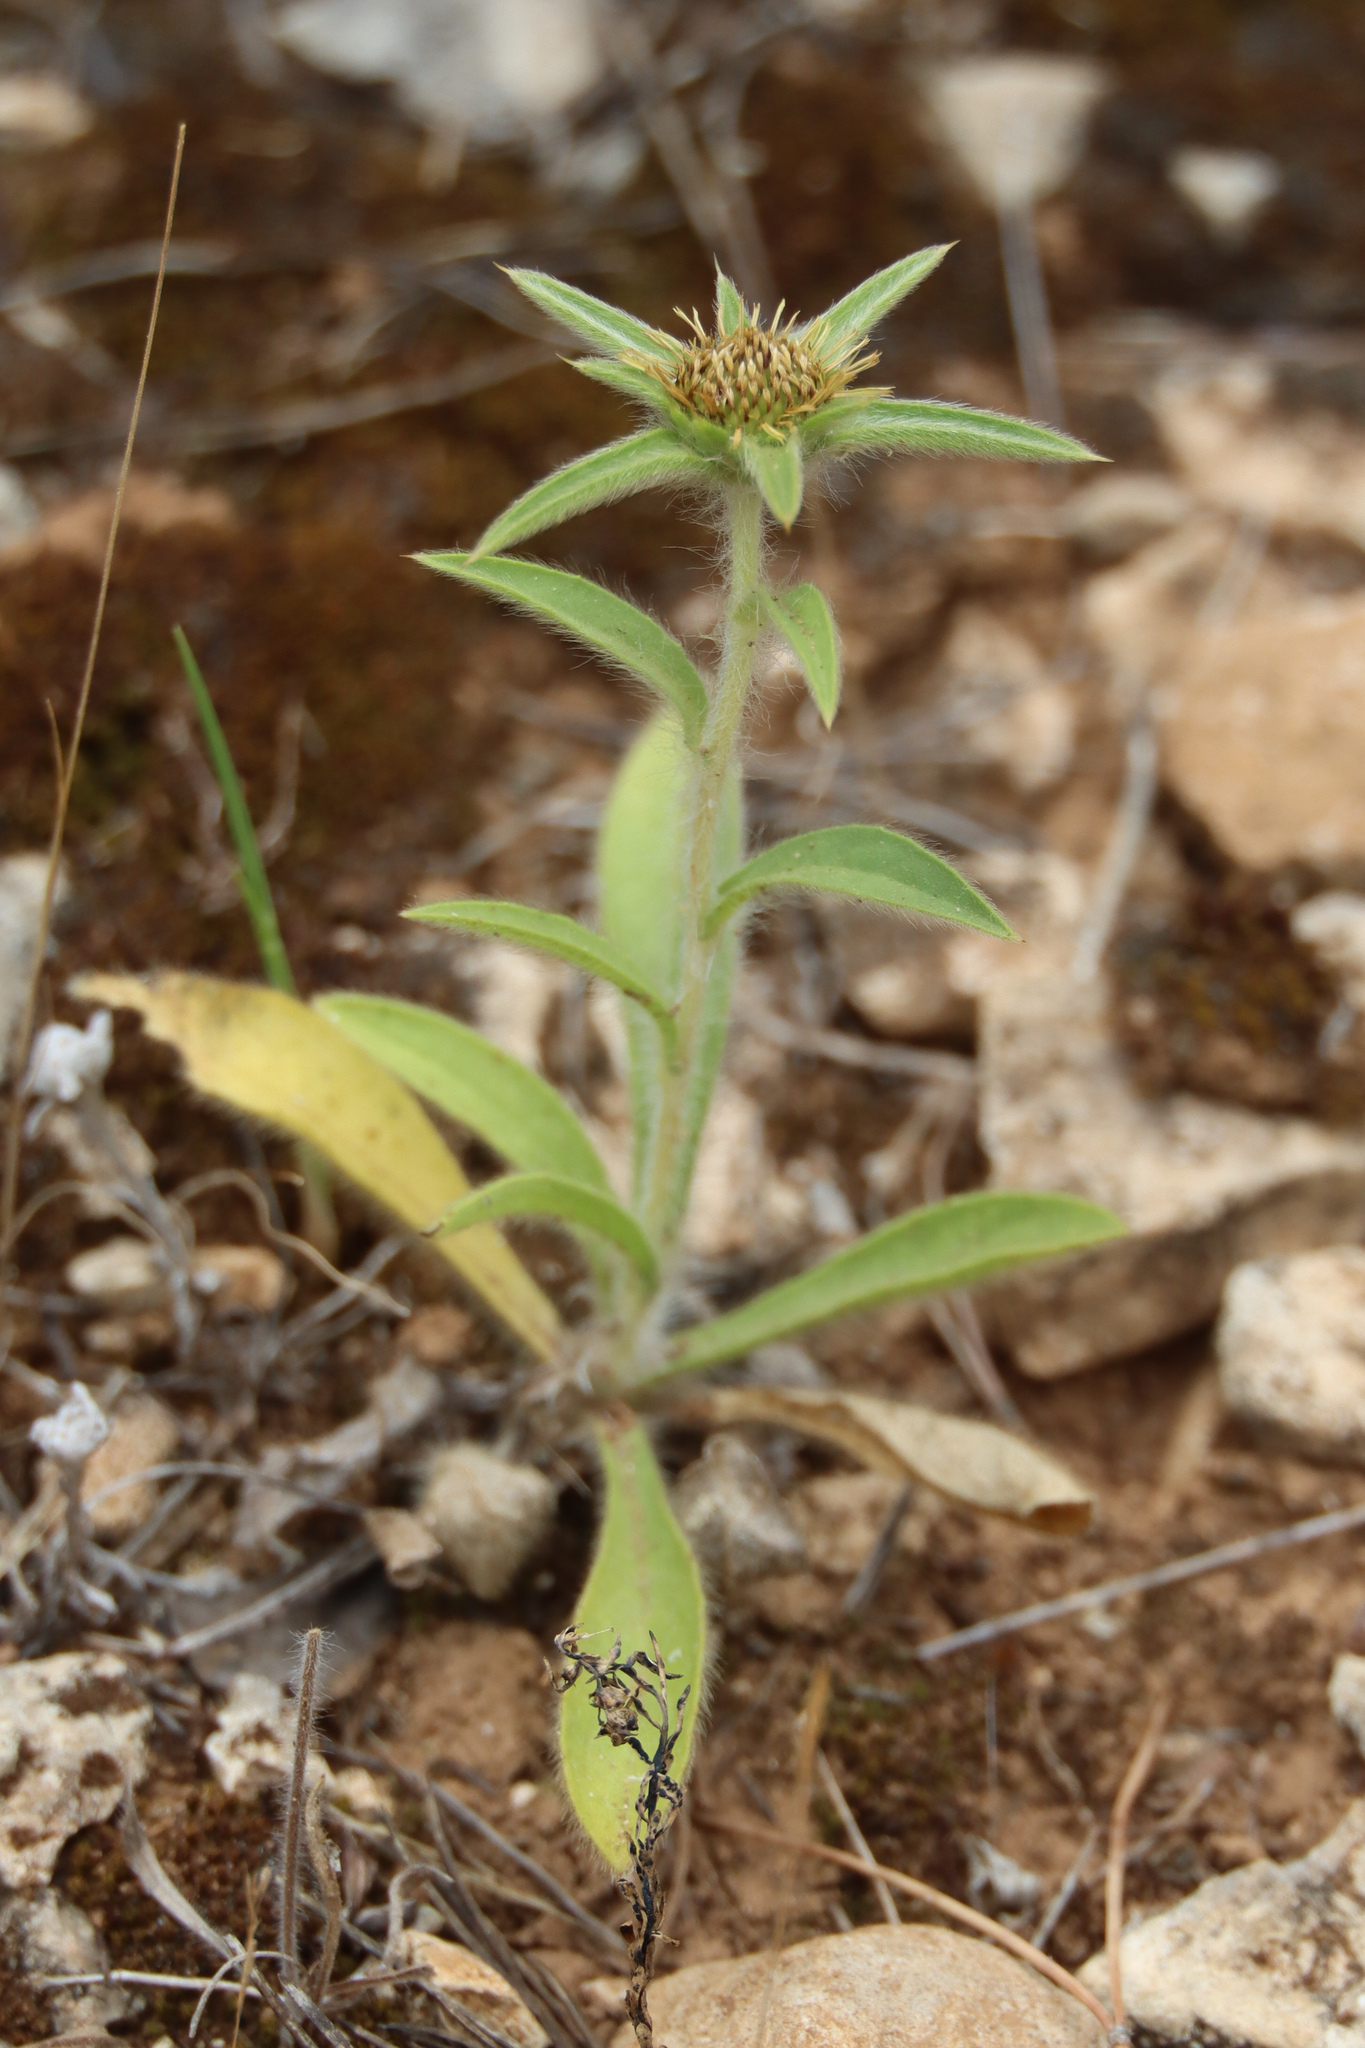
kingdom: Plantae
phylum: Tracheophyta
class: Magnoliopsida
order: Asterales
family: Asteraceae
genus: Pallenis
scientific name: Pallenis spinosa
